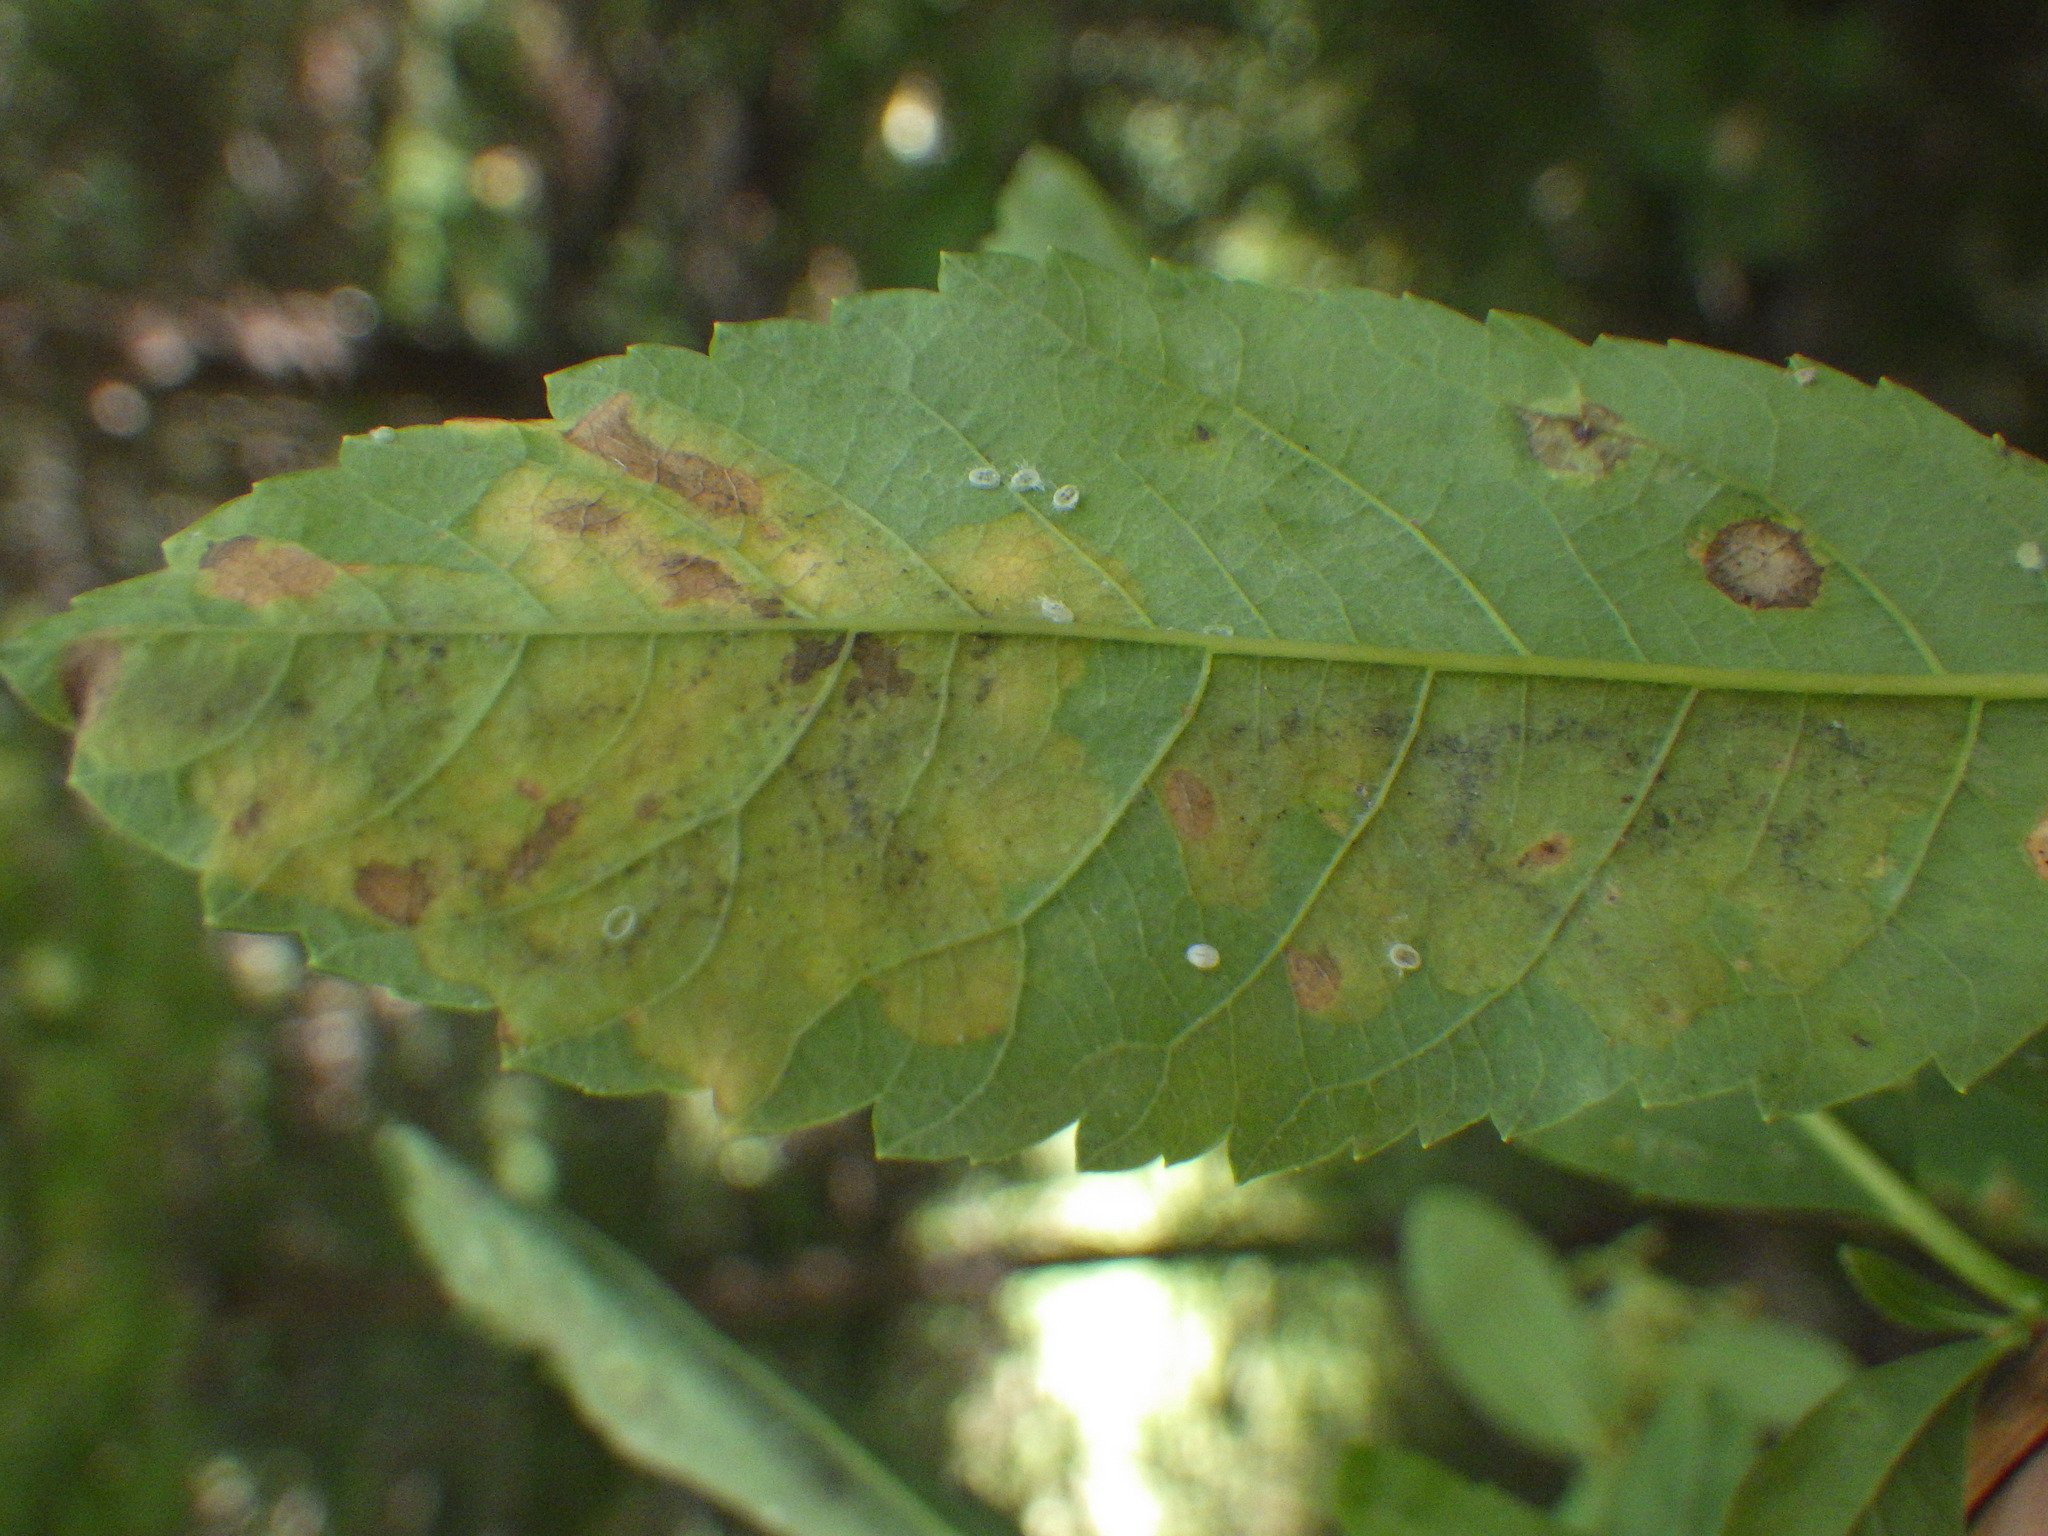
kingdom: Animalia
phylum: Arthropoda
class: Insecta
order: Diptera
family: Agromyzidae
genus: Agromyza
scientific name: Agromyza valdorensis
